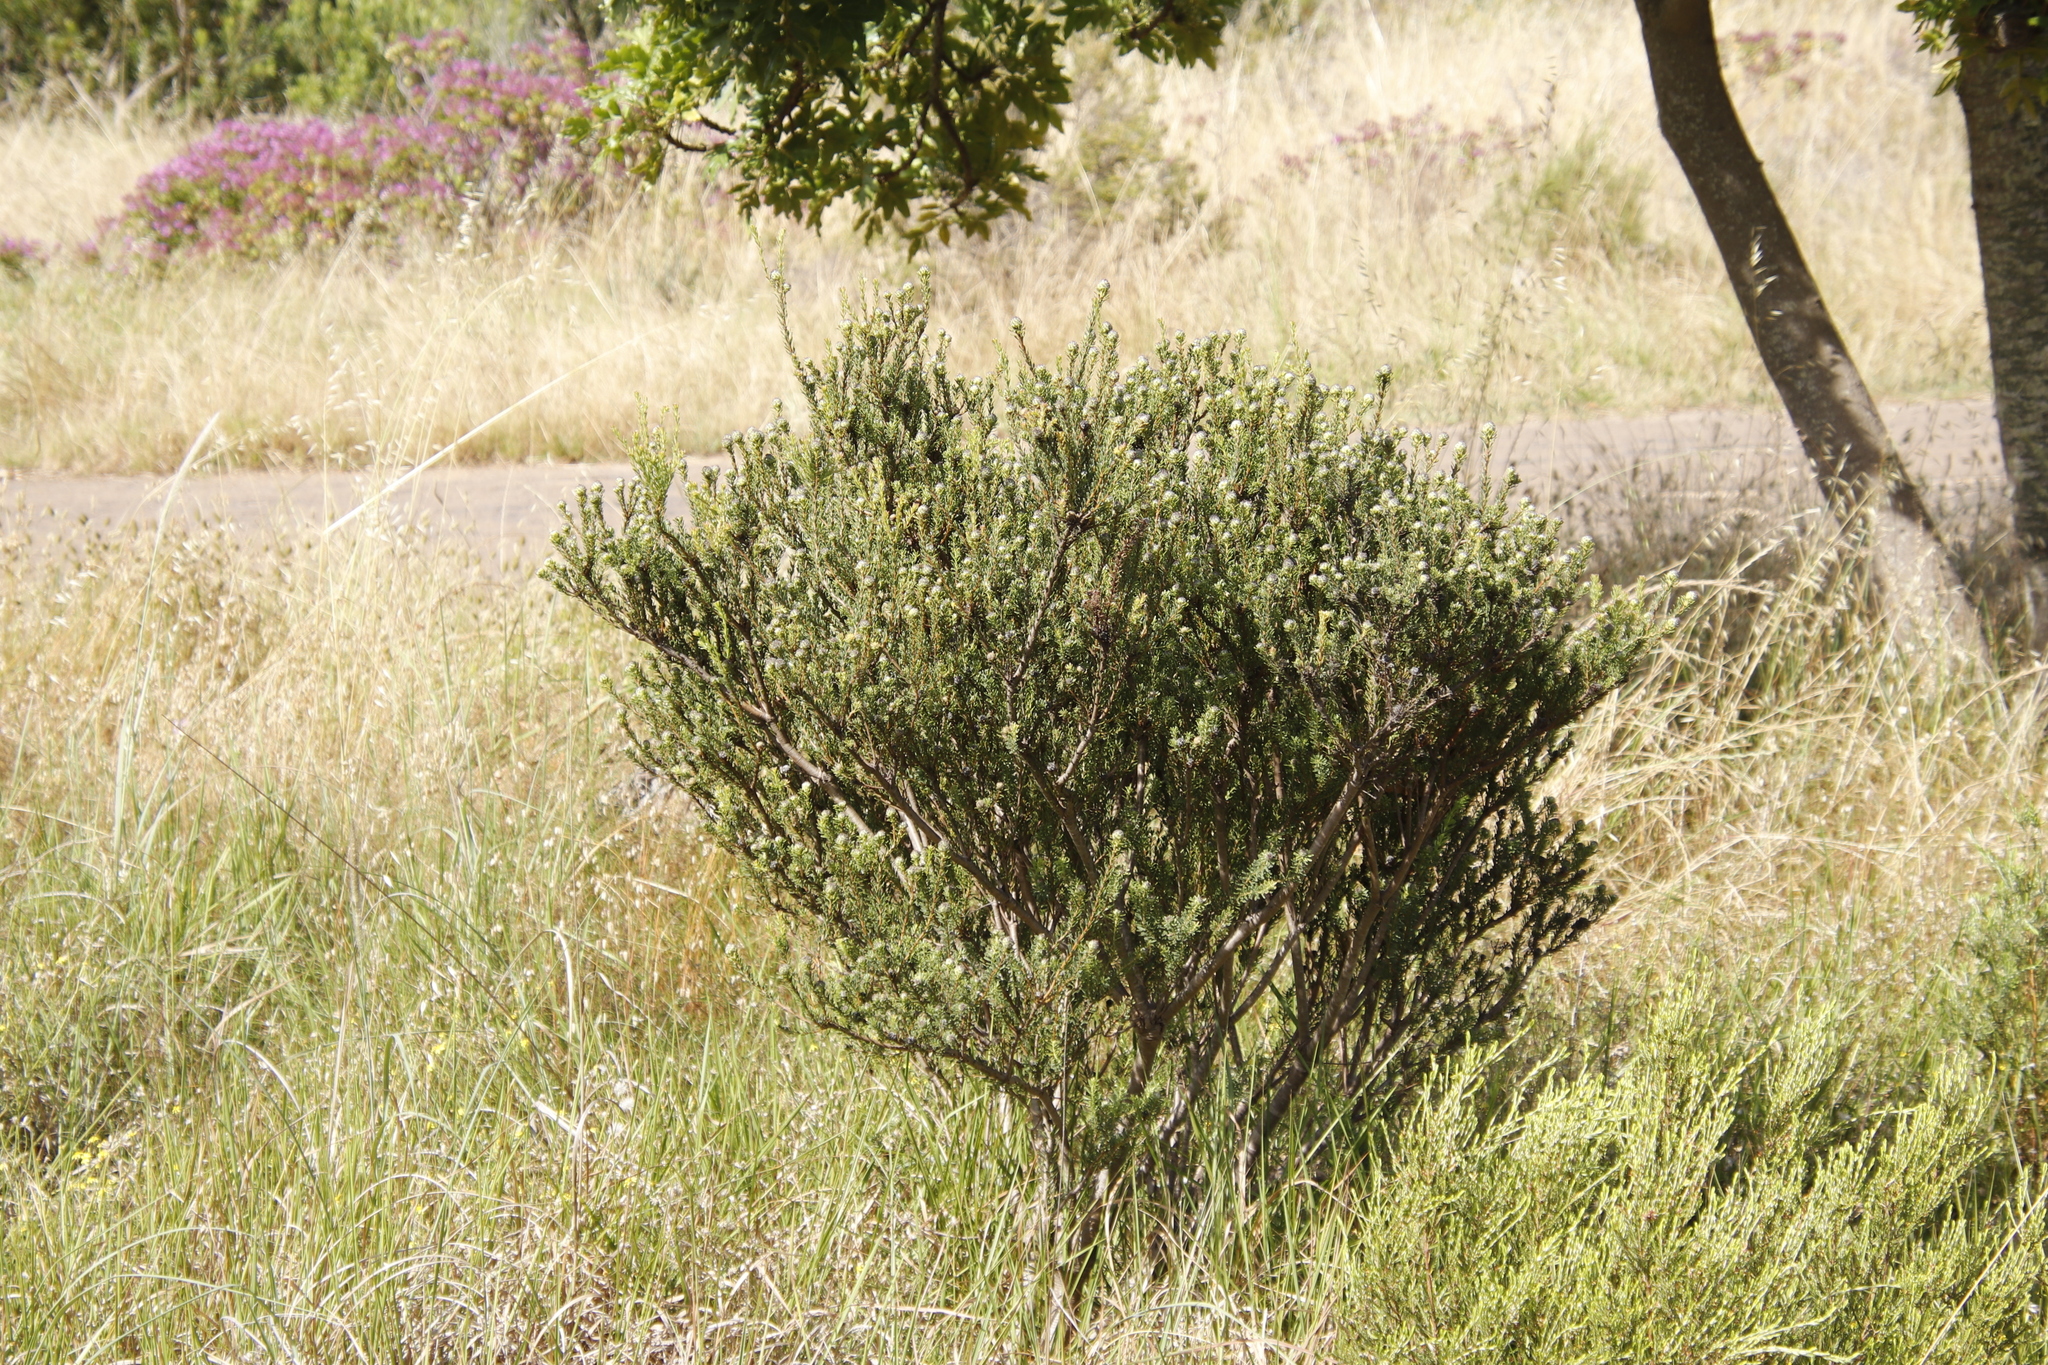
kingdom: Plantae
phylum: Tracheophyta
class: Magnoliopsida
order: Proteales
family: Proteaceae
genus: Leucadendron
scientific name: Leucadendron levisanus
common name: Cape flats conebush
